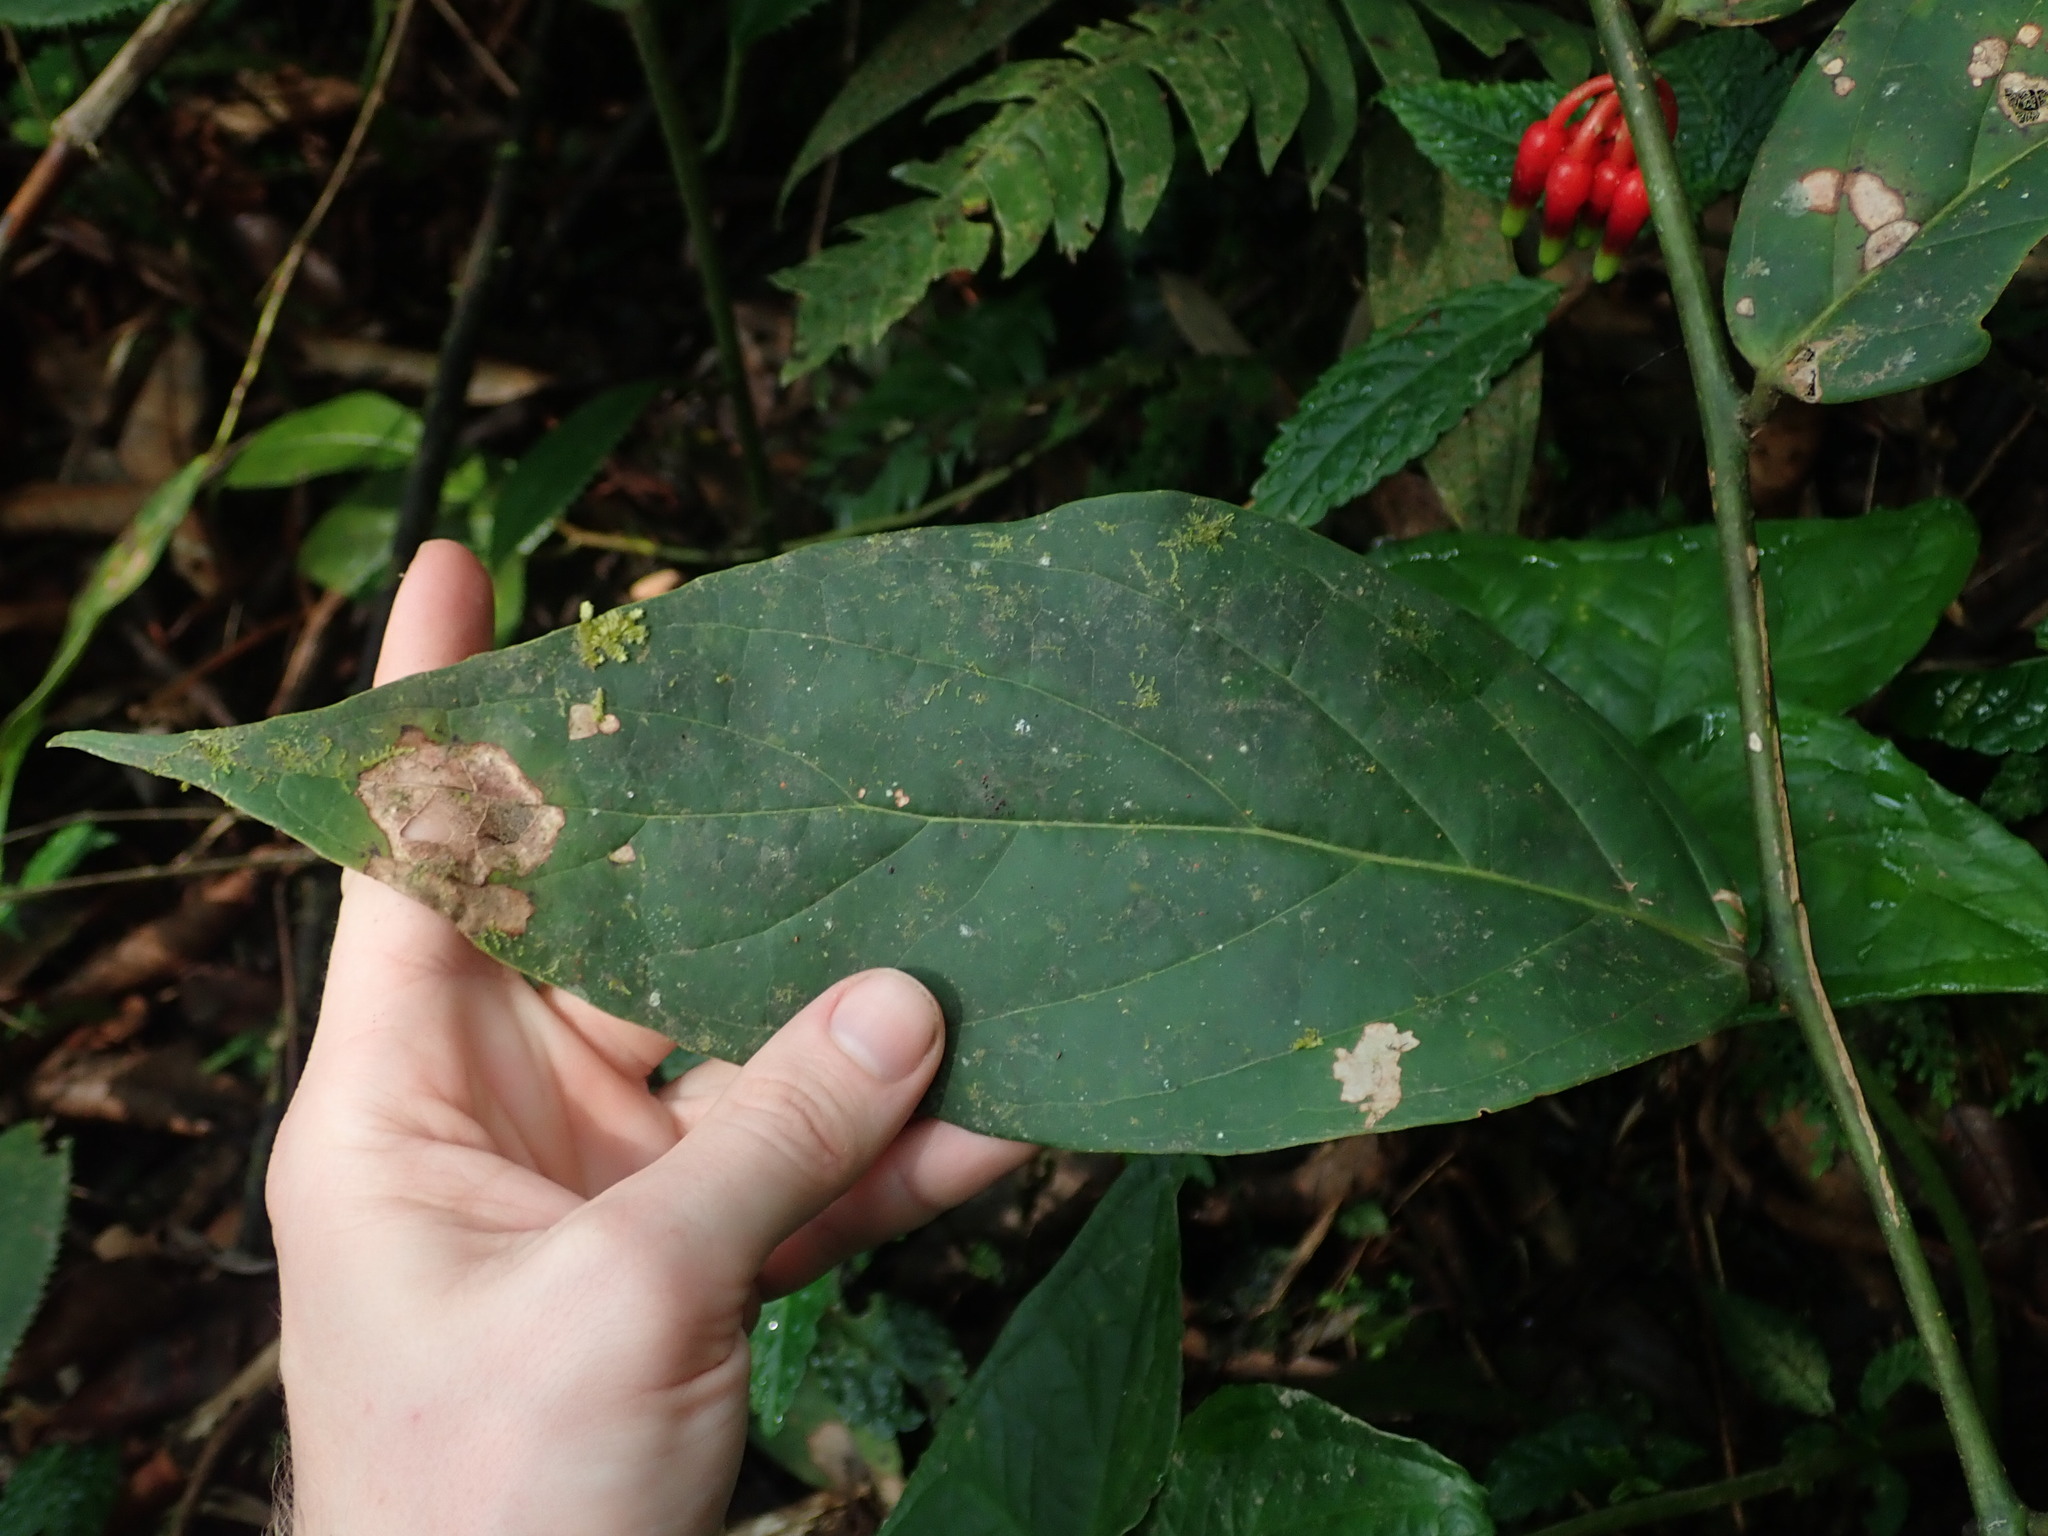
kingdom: Plantae
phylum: Tracheophyta
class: Magnoliopsida
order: Ericales
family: Ericaceae
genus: Psammisia
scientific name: Psammisia sodiroi
